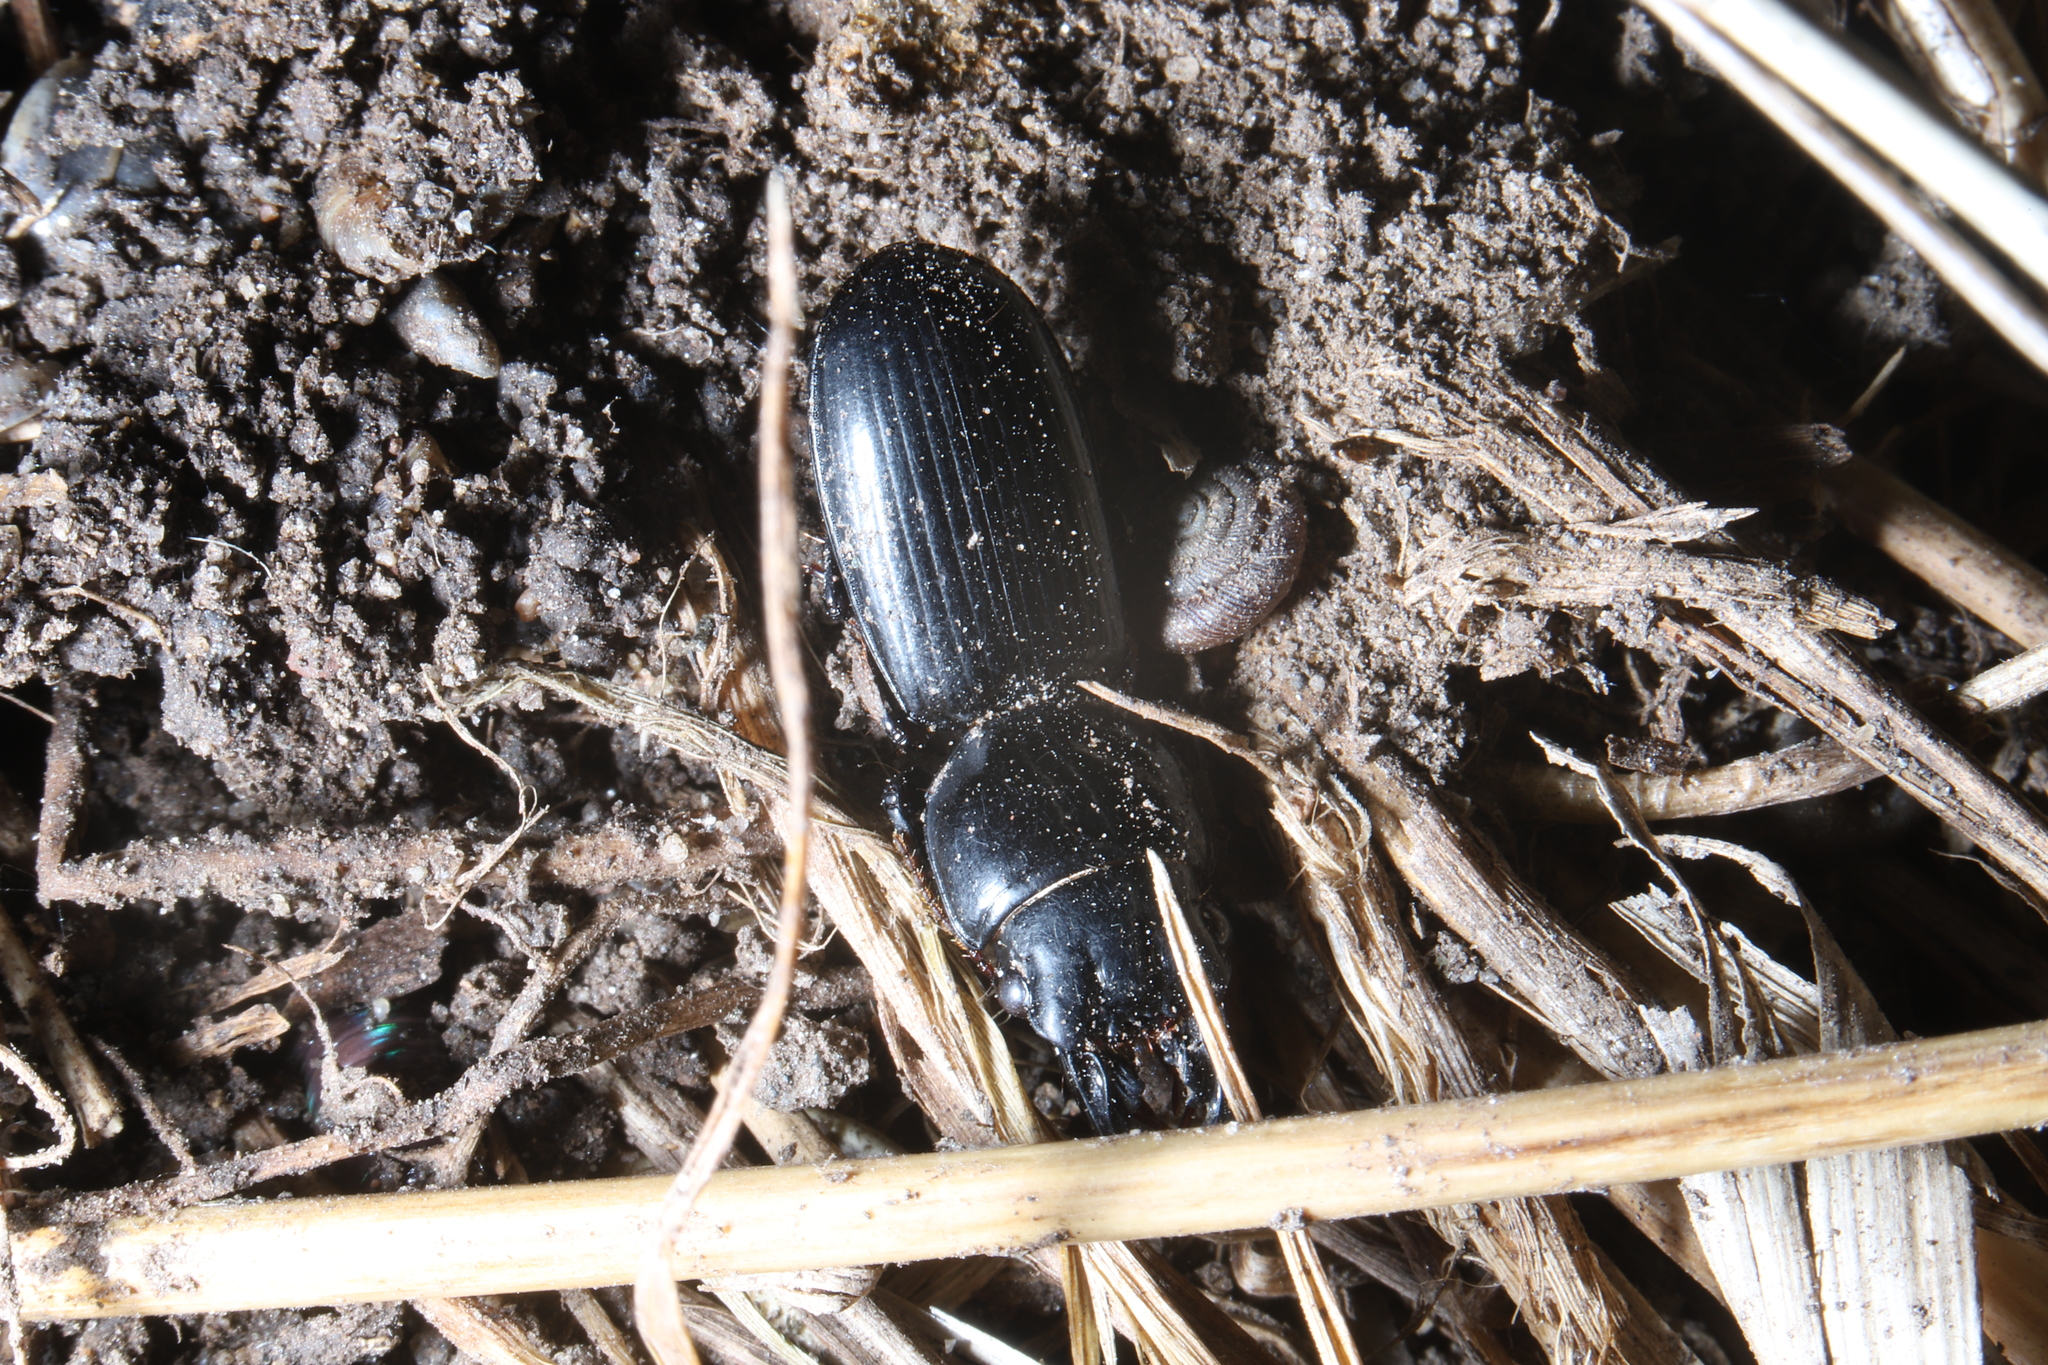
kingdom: Animalia
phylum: Arthropoda
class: Insecta
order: Coleoptera
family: Carabidae
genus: Scarites
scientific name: Scarites subterraneus
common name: Big-headed ground beetle
